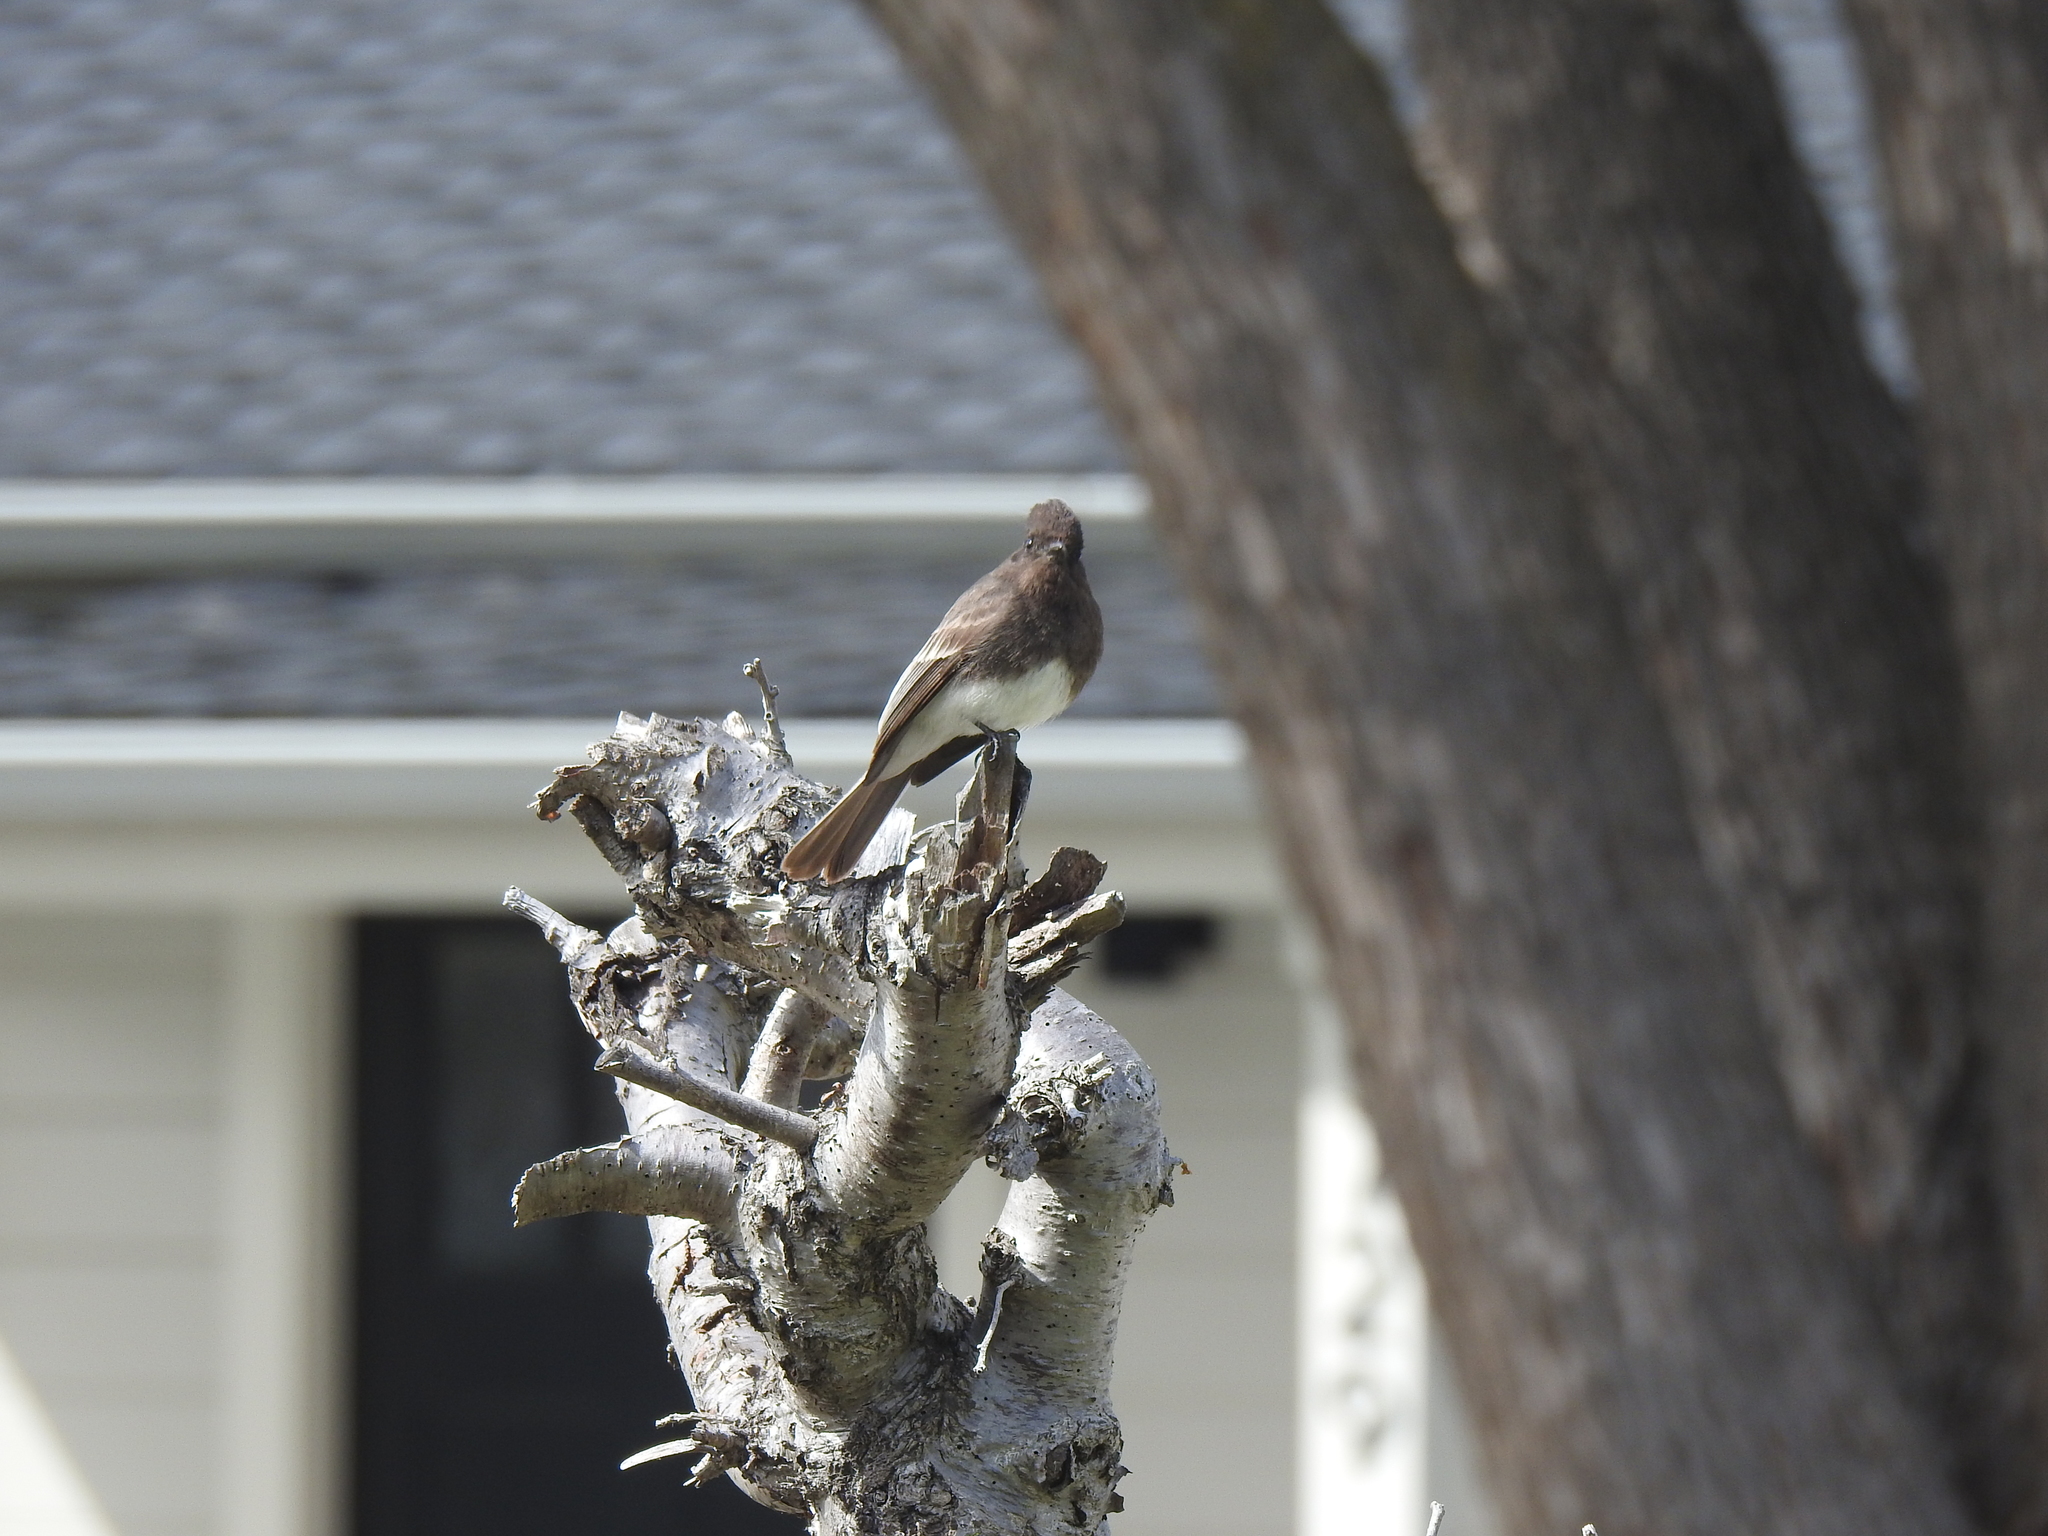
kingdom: Animalia
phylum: Chordata
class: Aves
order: Passeriformes
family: Tyrannidae
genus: Sayornis
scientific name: Sayornis nigricans
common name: Black phoebe
